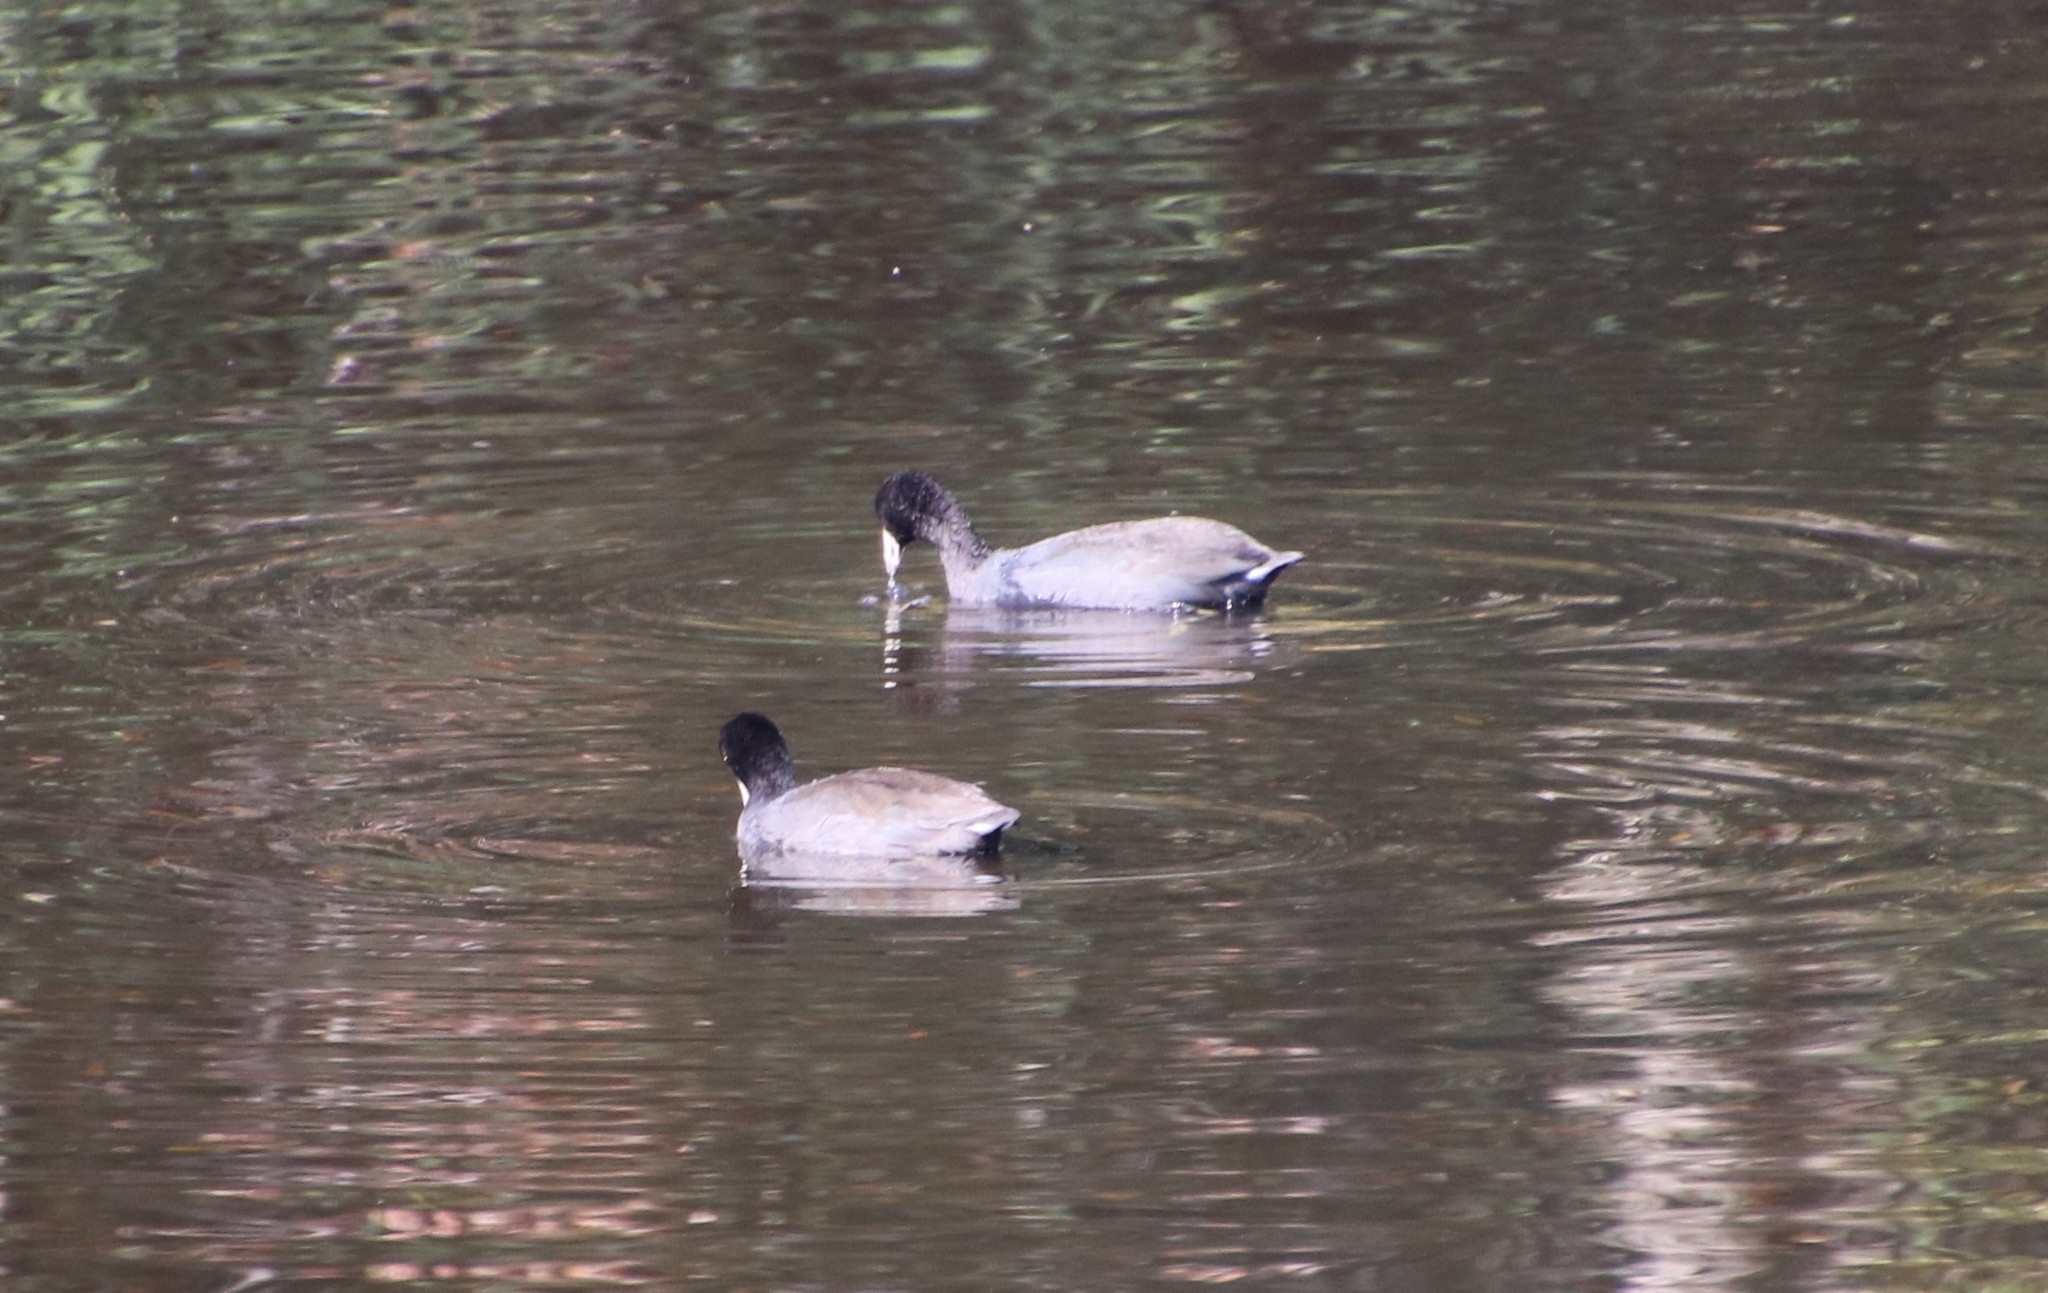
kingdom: Animalia
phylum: Chordata
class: Aves
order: Gruiformes
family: Rallidae
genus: Fulica
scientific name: Fulica americana
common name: American coot
